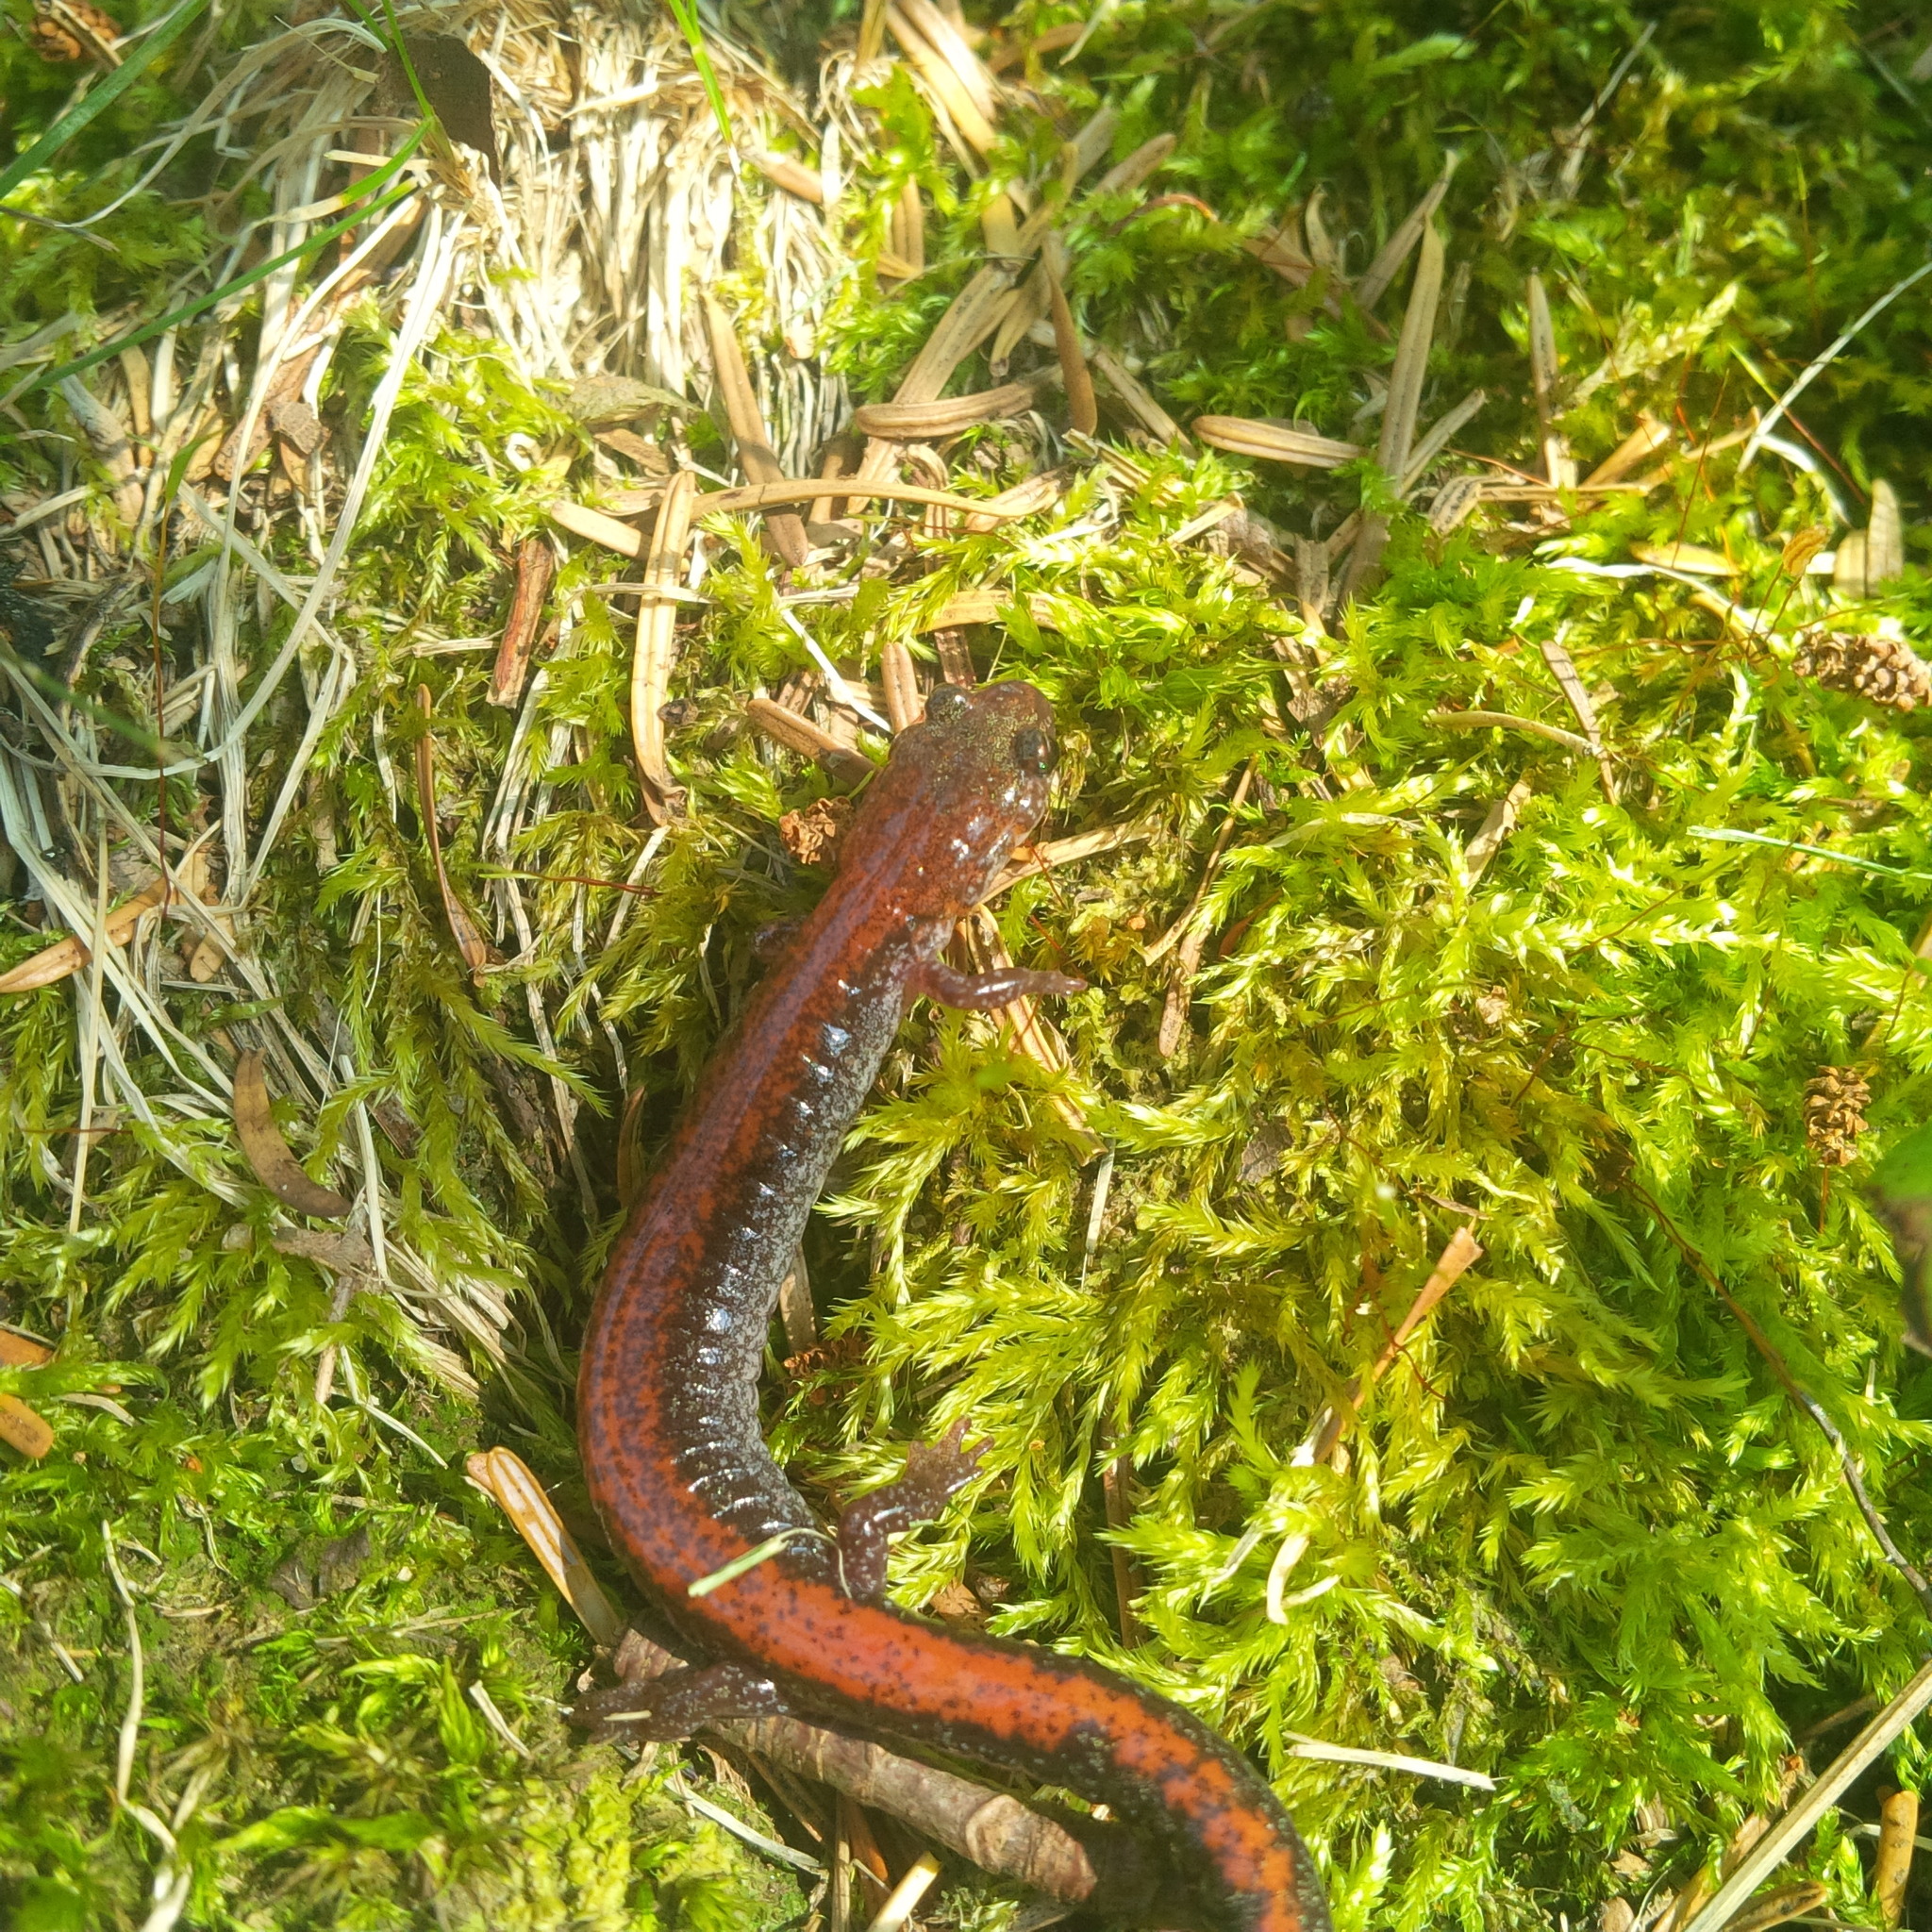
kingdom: Animalia
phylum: Chordata
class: Amphibia
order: Caudata
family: Plethodontidae
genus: Plethodon
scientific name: Plethodon cinereus
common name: Redback salamander
